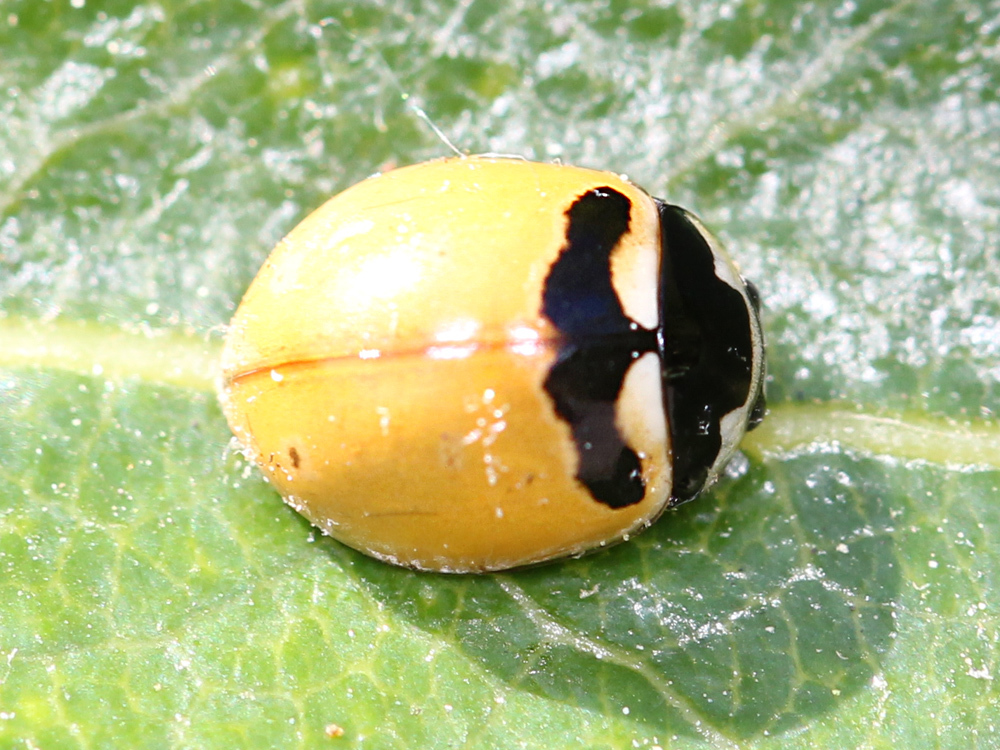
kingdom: Animalia
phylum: Arthropoda
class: Insecta
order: Coleoptera
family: Coccinellidae
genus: Coccinella
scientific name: Coccinella trifasciata
